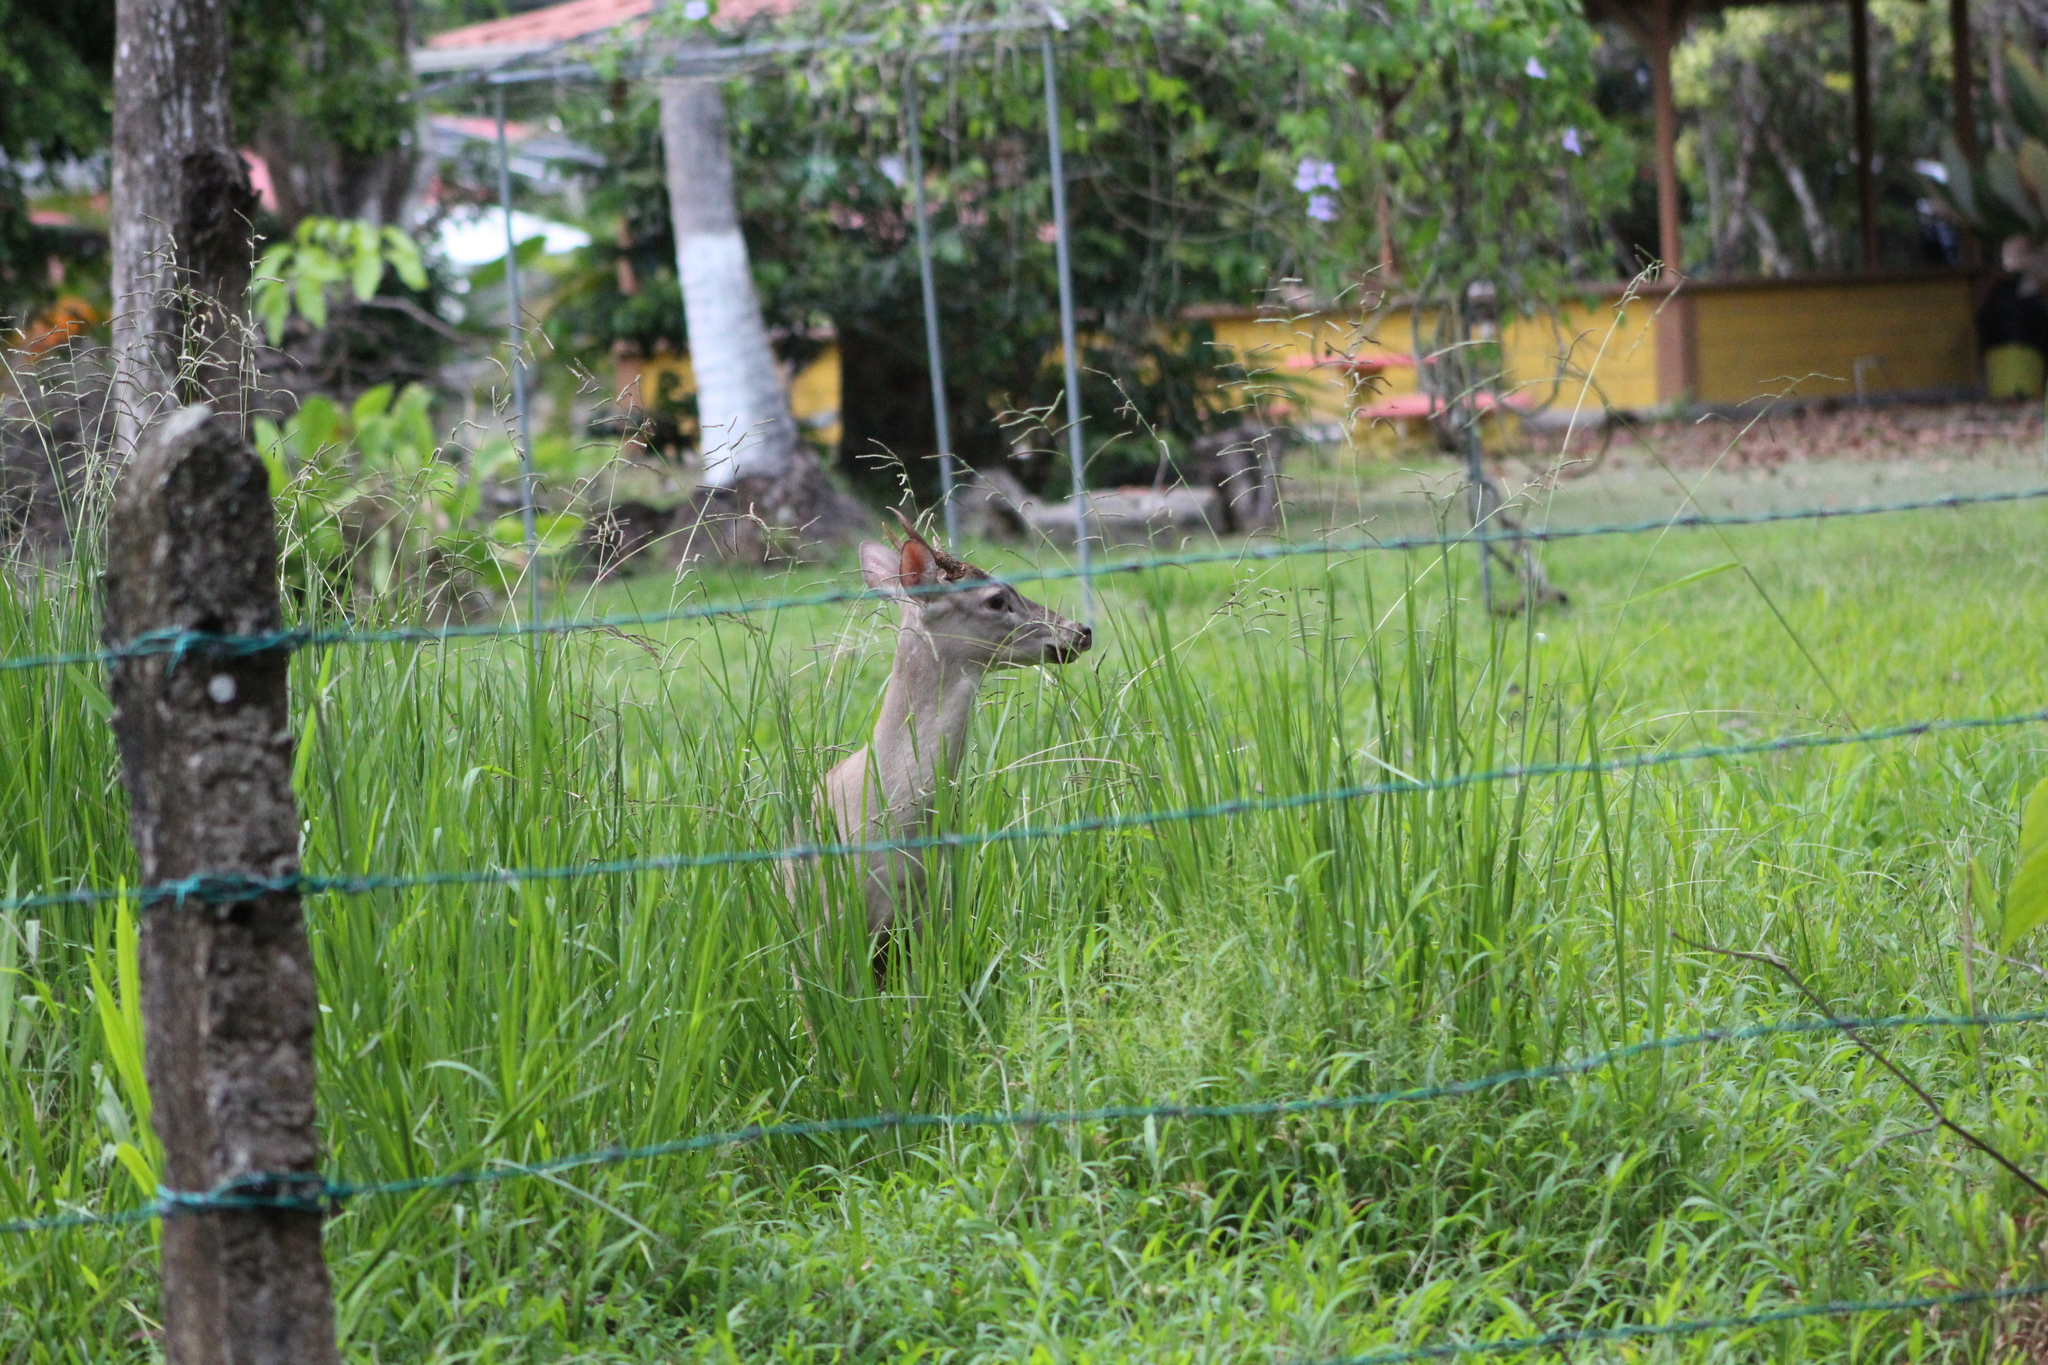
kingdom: Animalia
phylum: Chordata
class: Mammalia
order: Artiodactyla
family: Cervidae
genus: Odocoileus
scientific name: Odocoileus virginianus
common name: White-tailed deer
